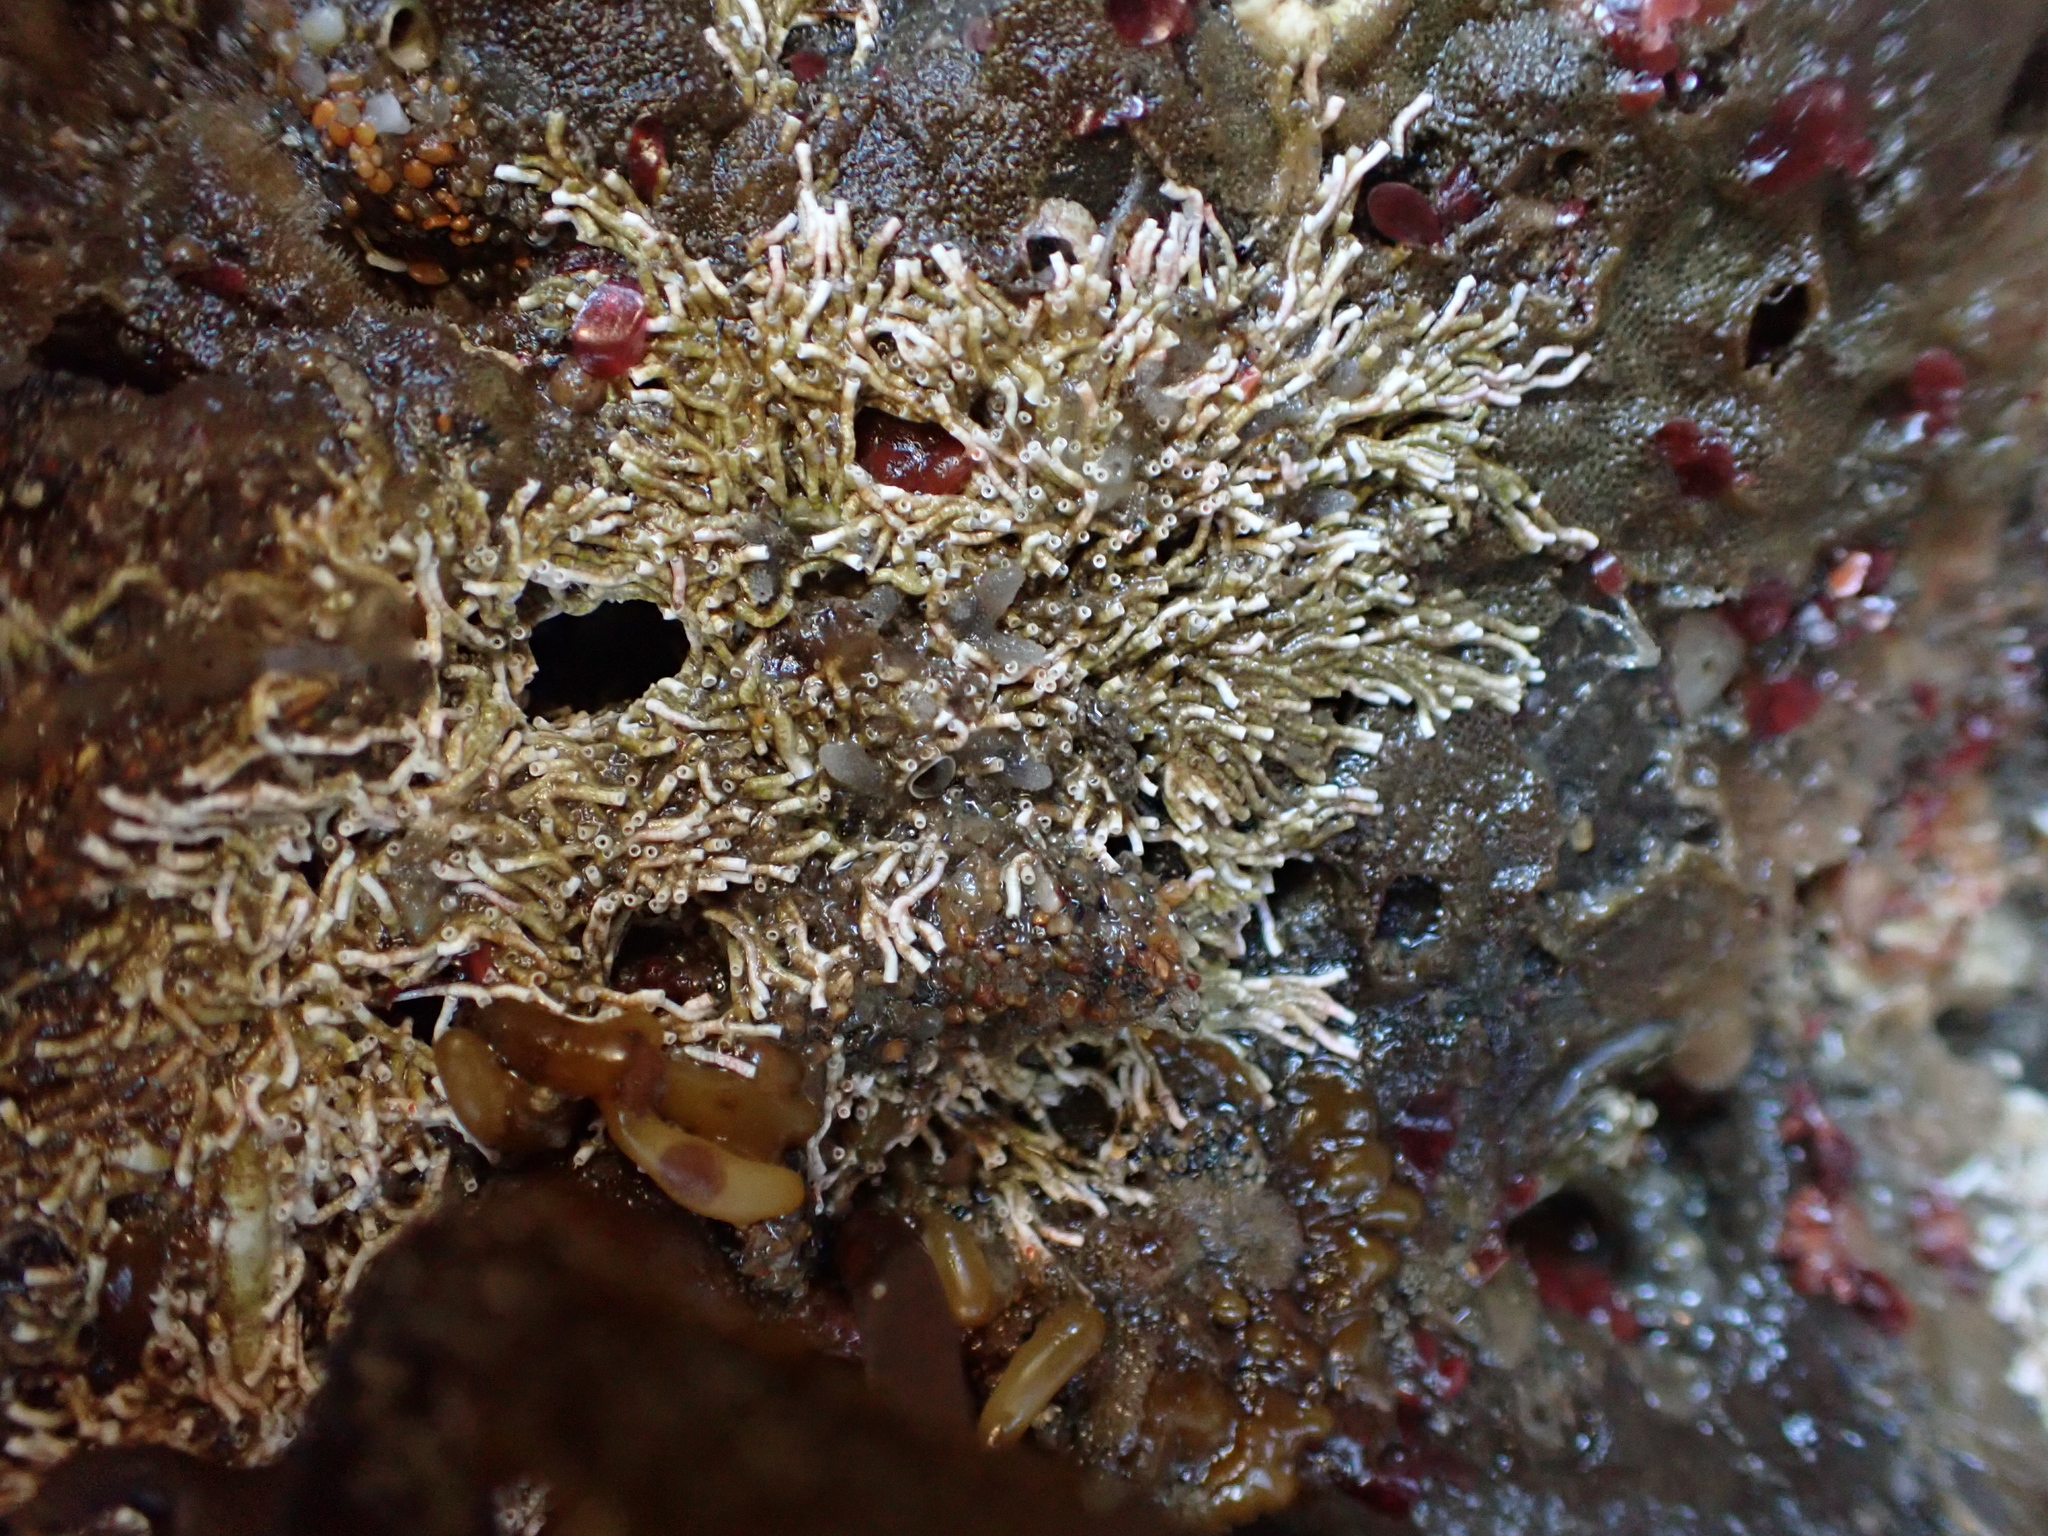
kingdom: Animalia
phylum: Annelida
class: Polychaeta
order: Sabellida
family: Serpulidae
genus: Salmacina
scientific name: Salmacina tribranchiata
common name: Fouling serpulid
